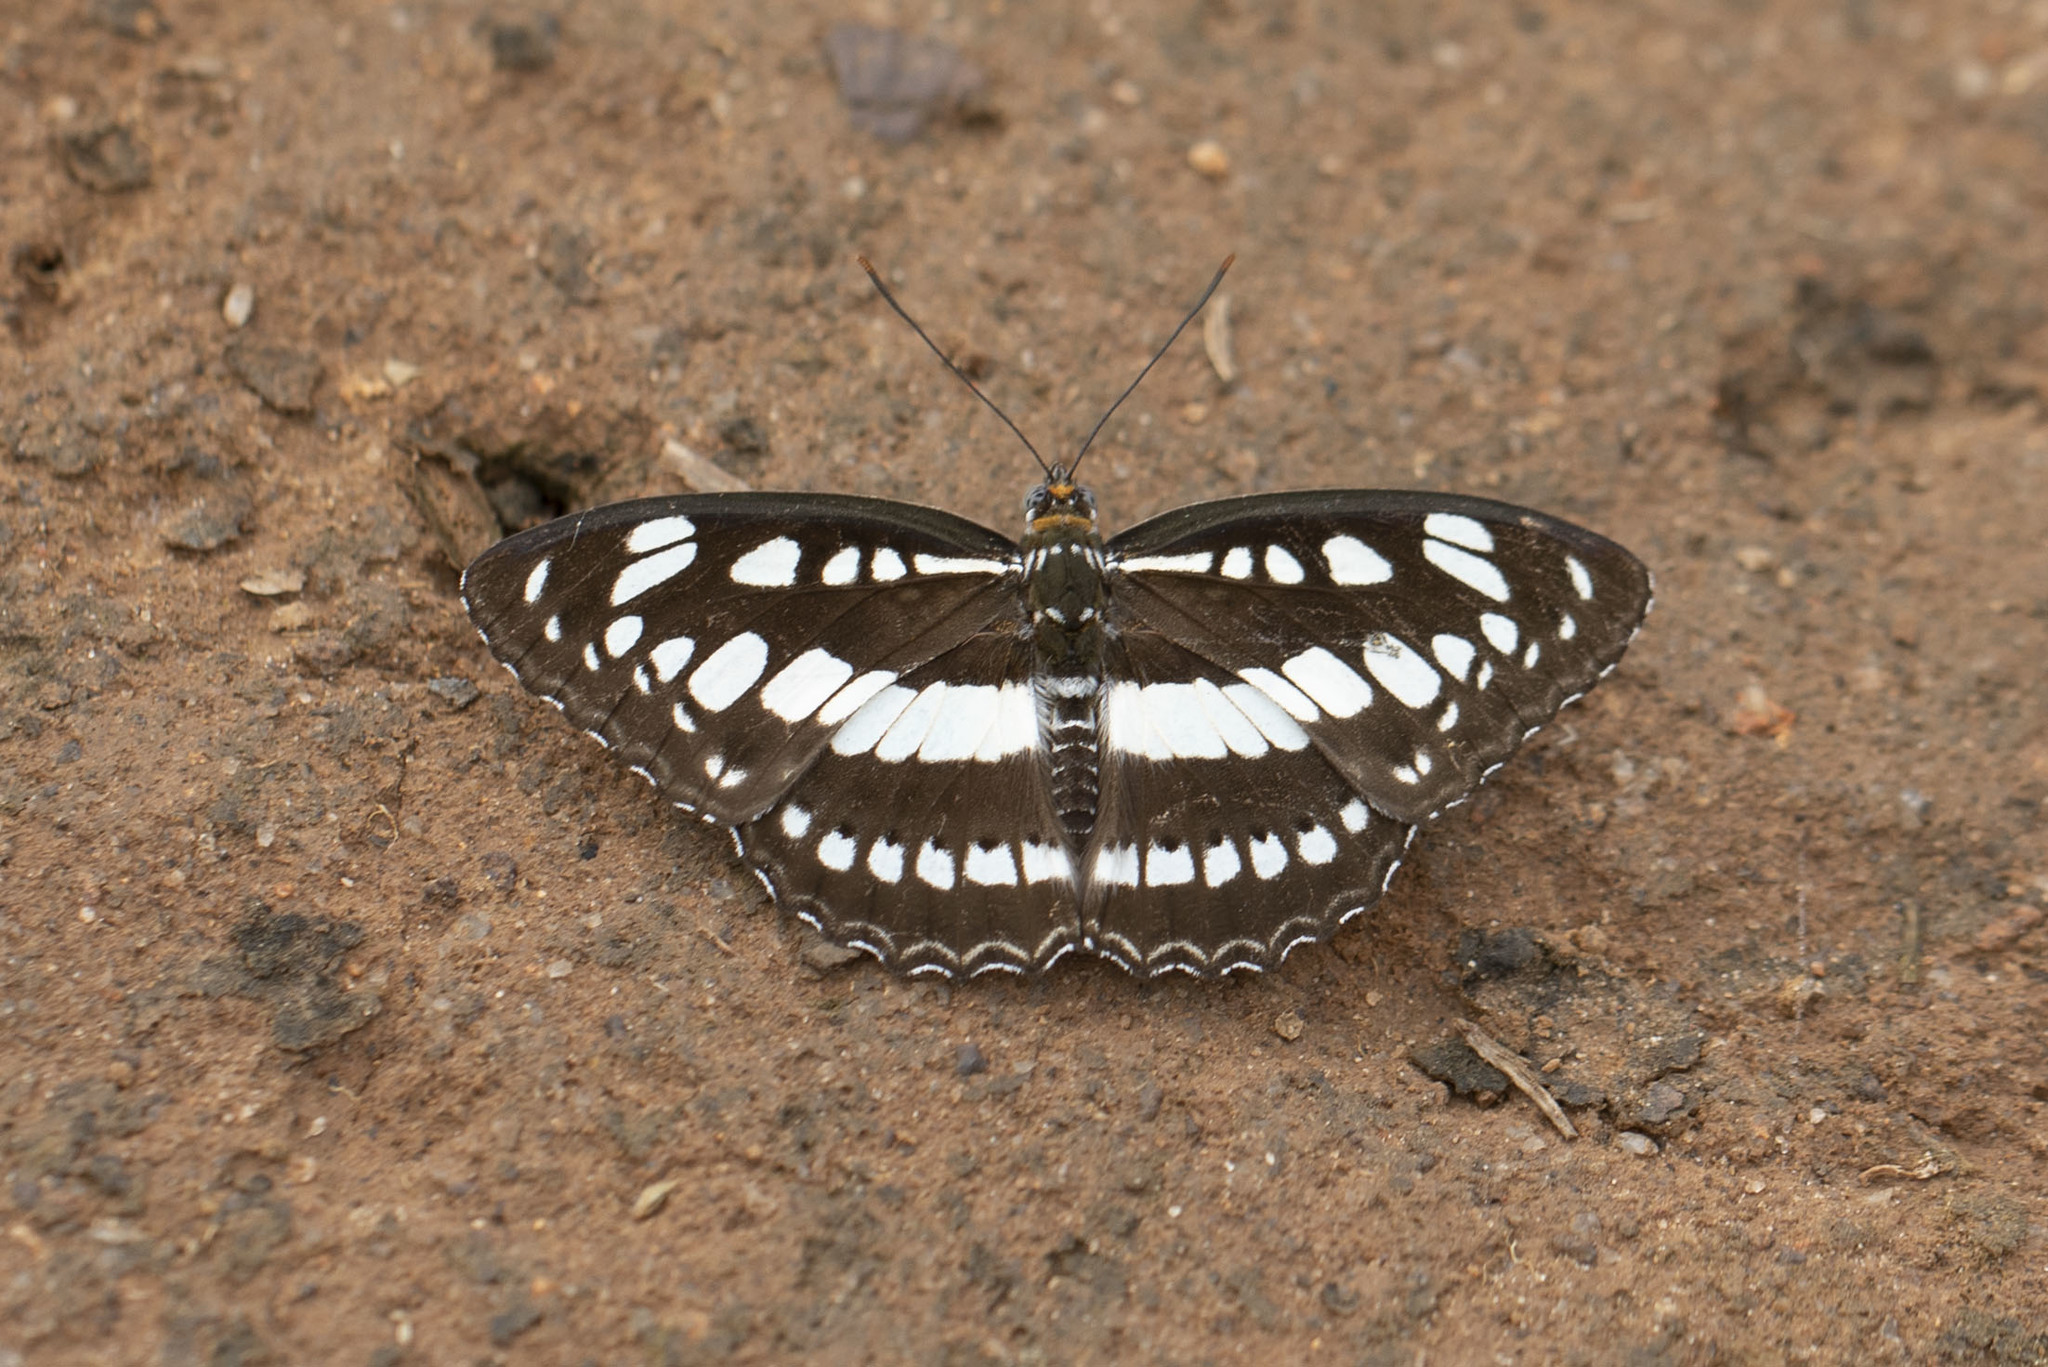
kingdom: Animalia
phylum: Arthropoda
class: Insecta
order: Lepidoptera
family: Nymphalidae
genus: Parathyma
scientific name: Parathyma perius
